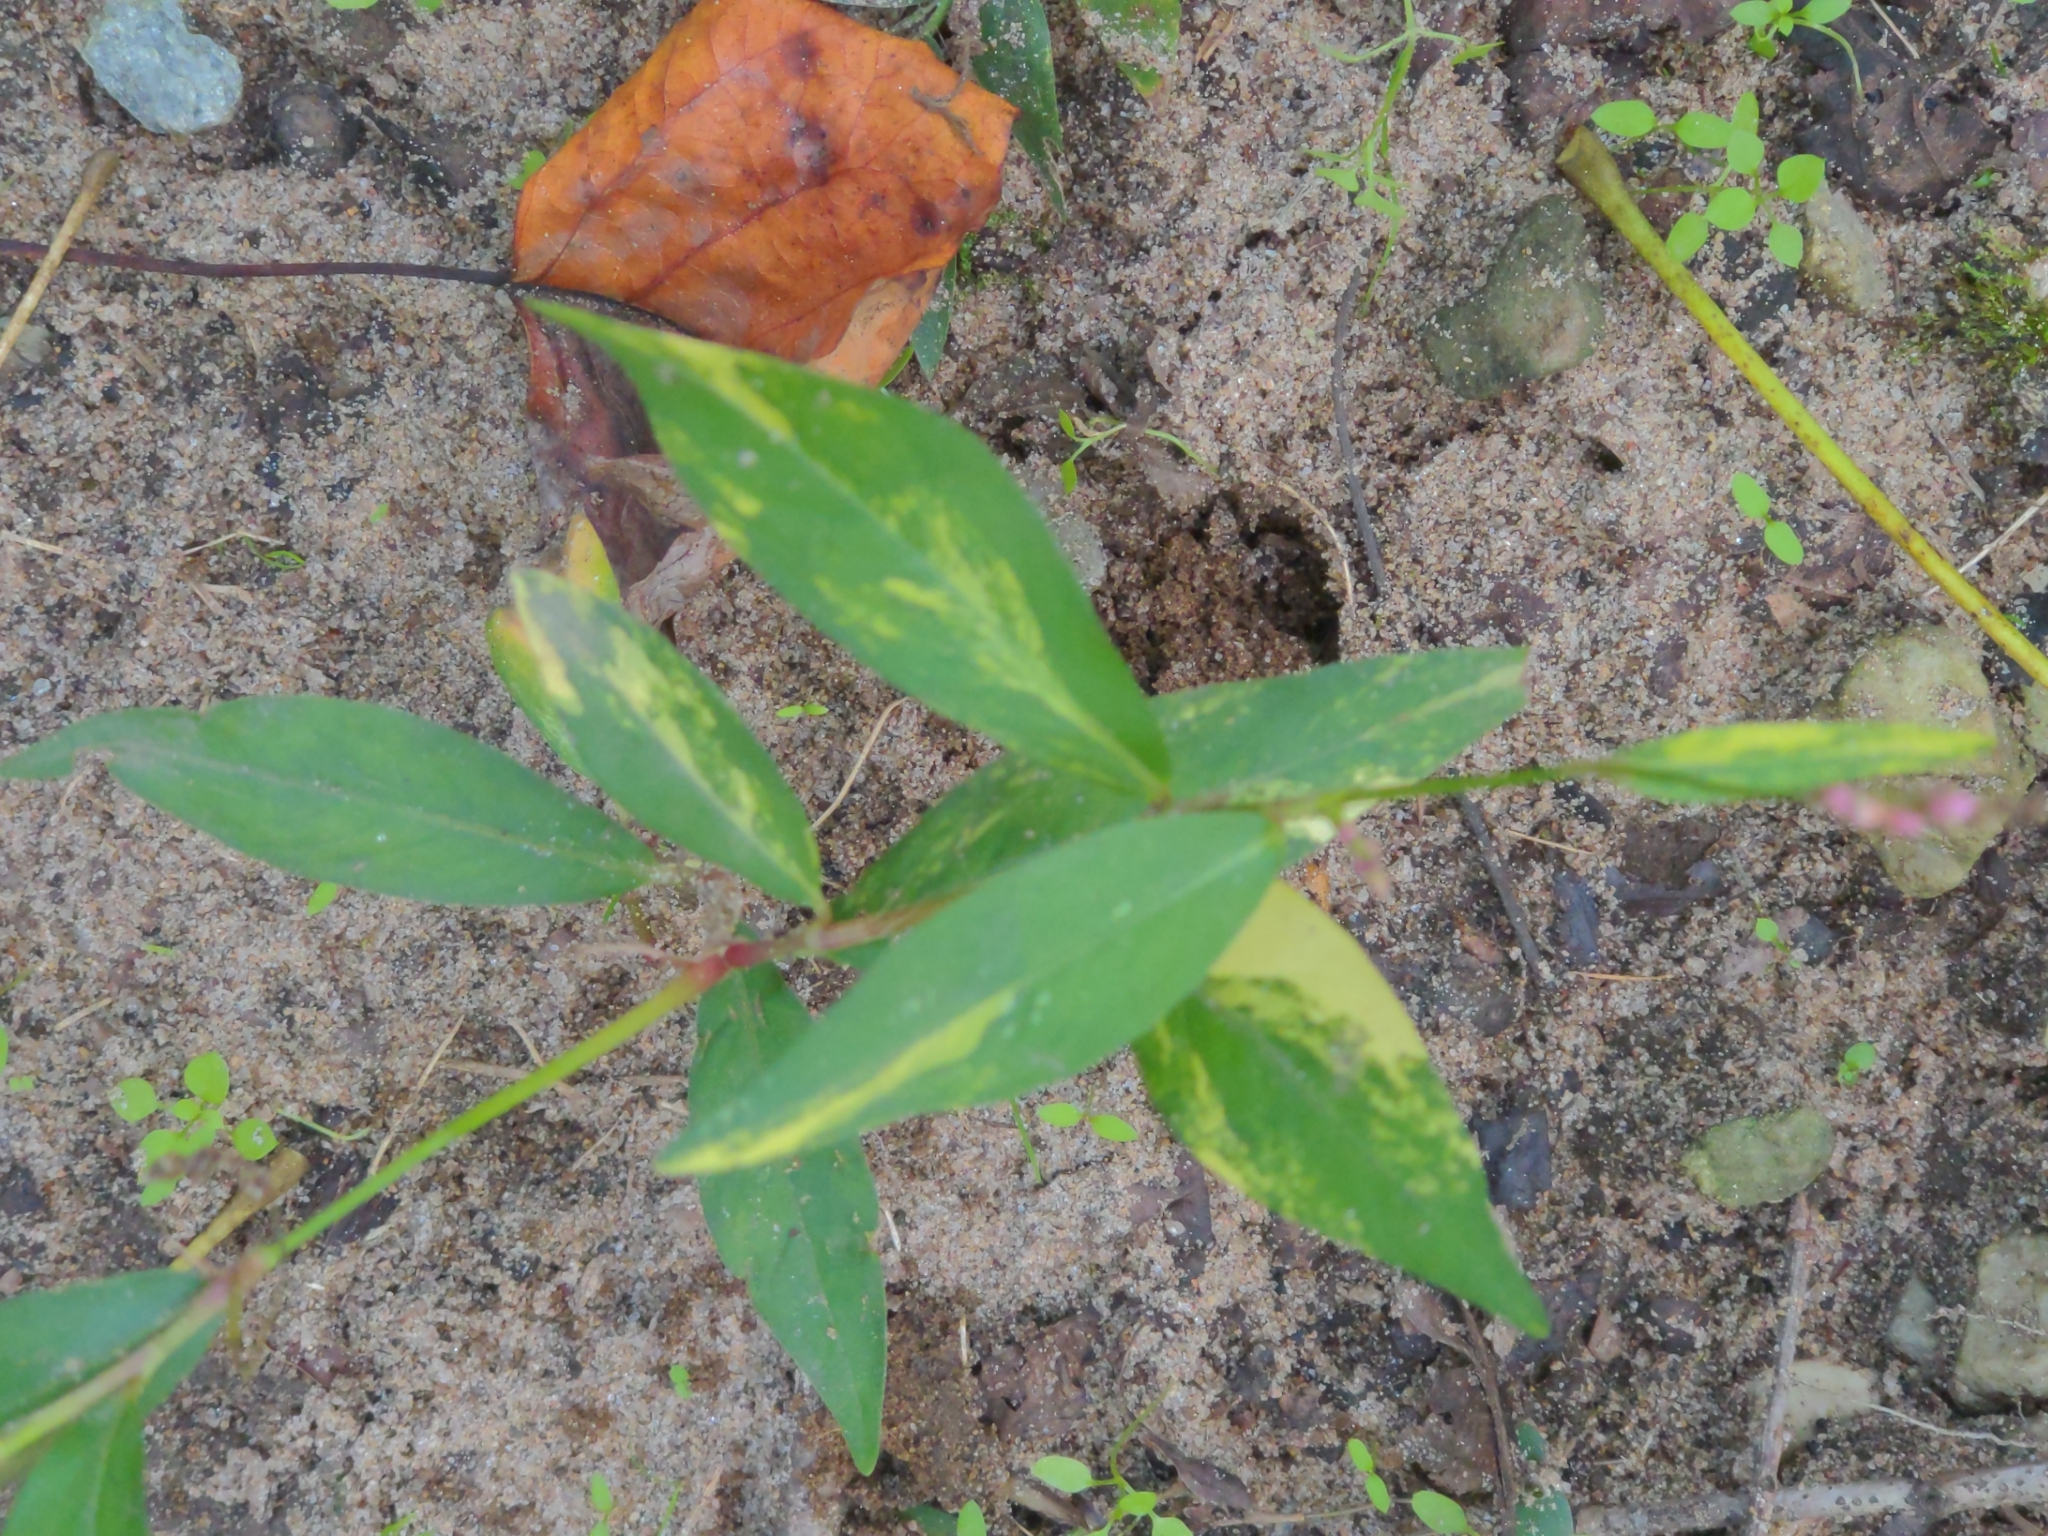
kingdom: Plantae
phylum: Tracheophyta
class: Magnoliopsida
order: Caryophyllales
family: Polygonaceae
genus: Persicaria
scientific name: Persicaria longiseta
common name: Bristly lady's-thumb
